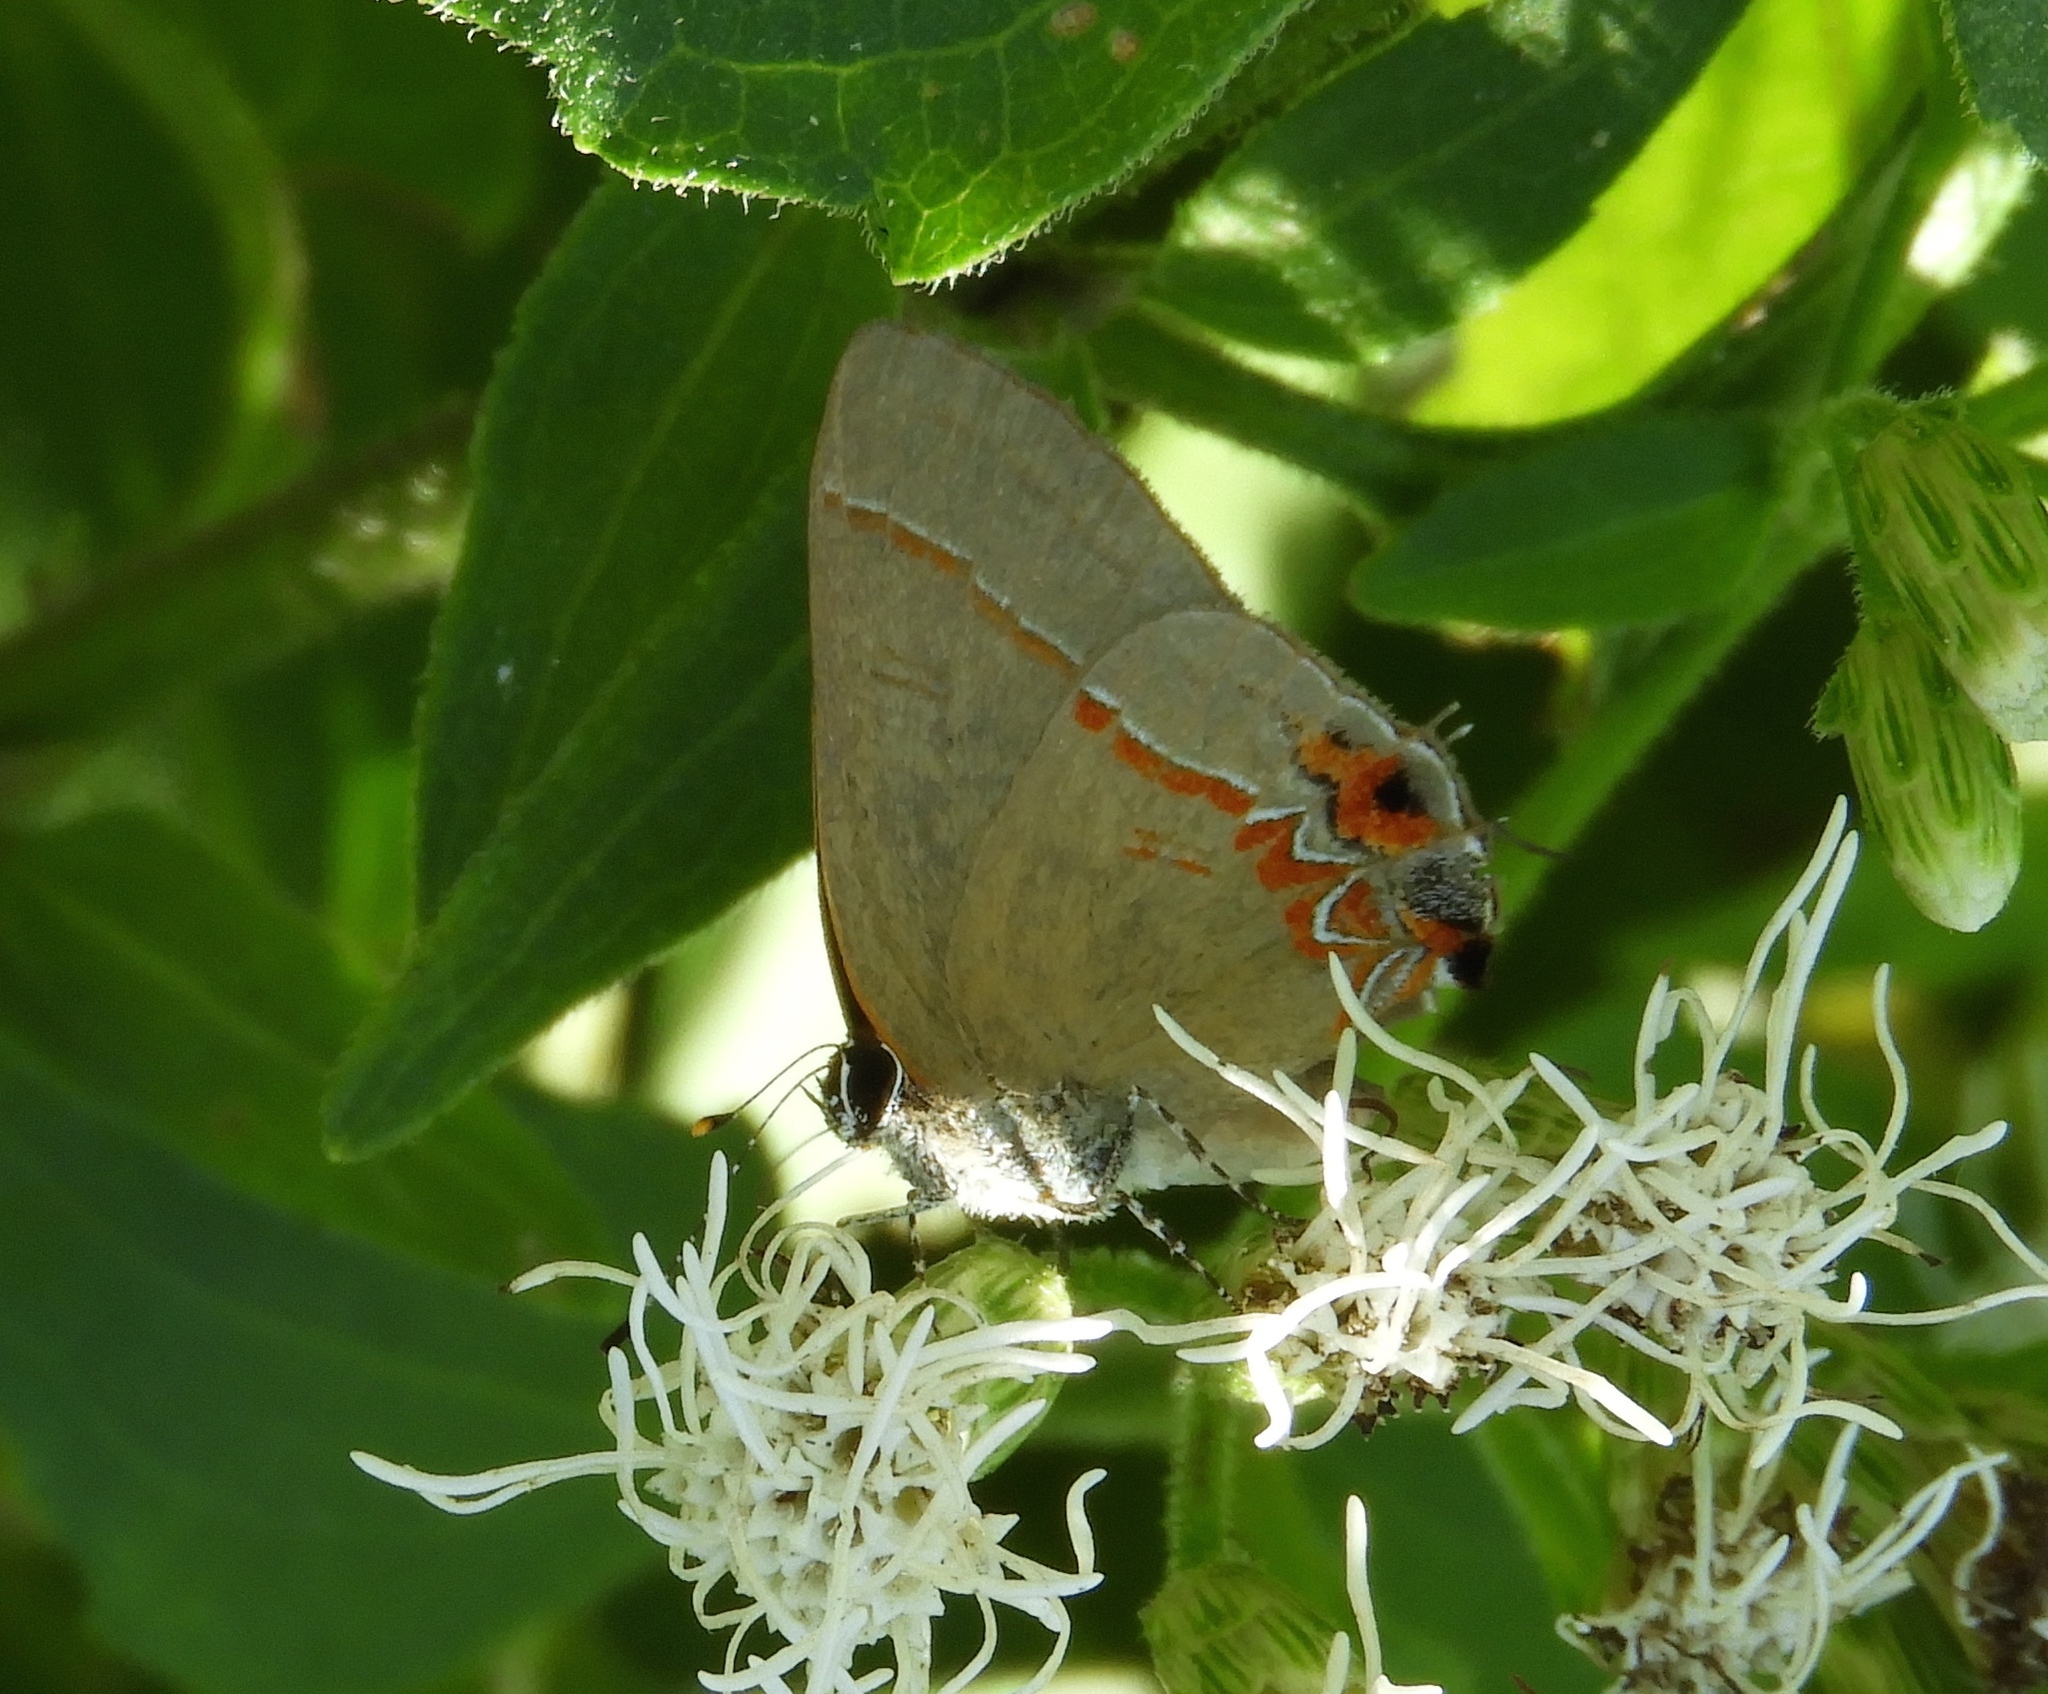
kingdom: Animalia
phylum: Arthropoda
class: Insecta
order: Lepidoptera
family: Lycaenidae
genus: Calycopis
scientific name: Calycopis
